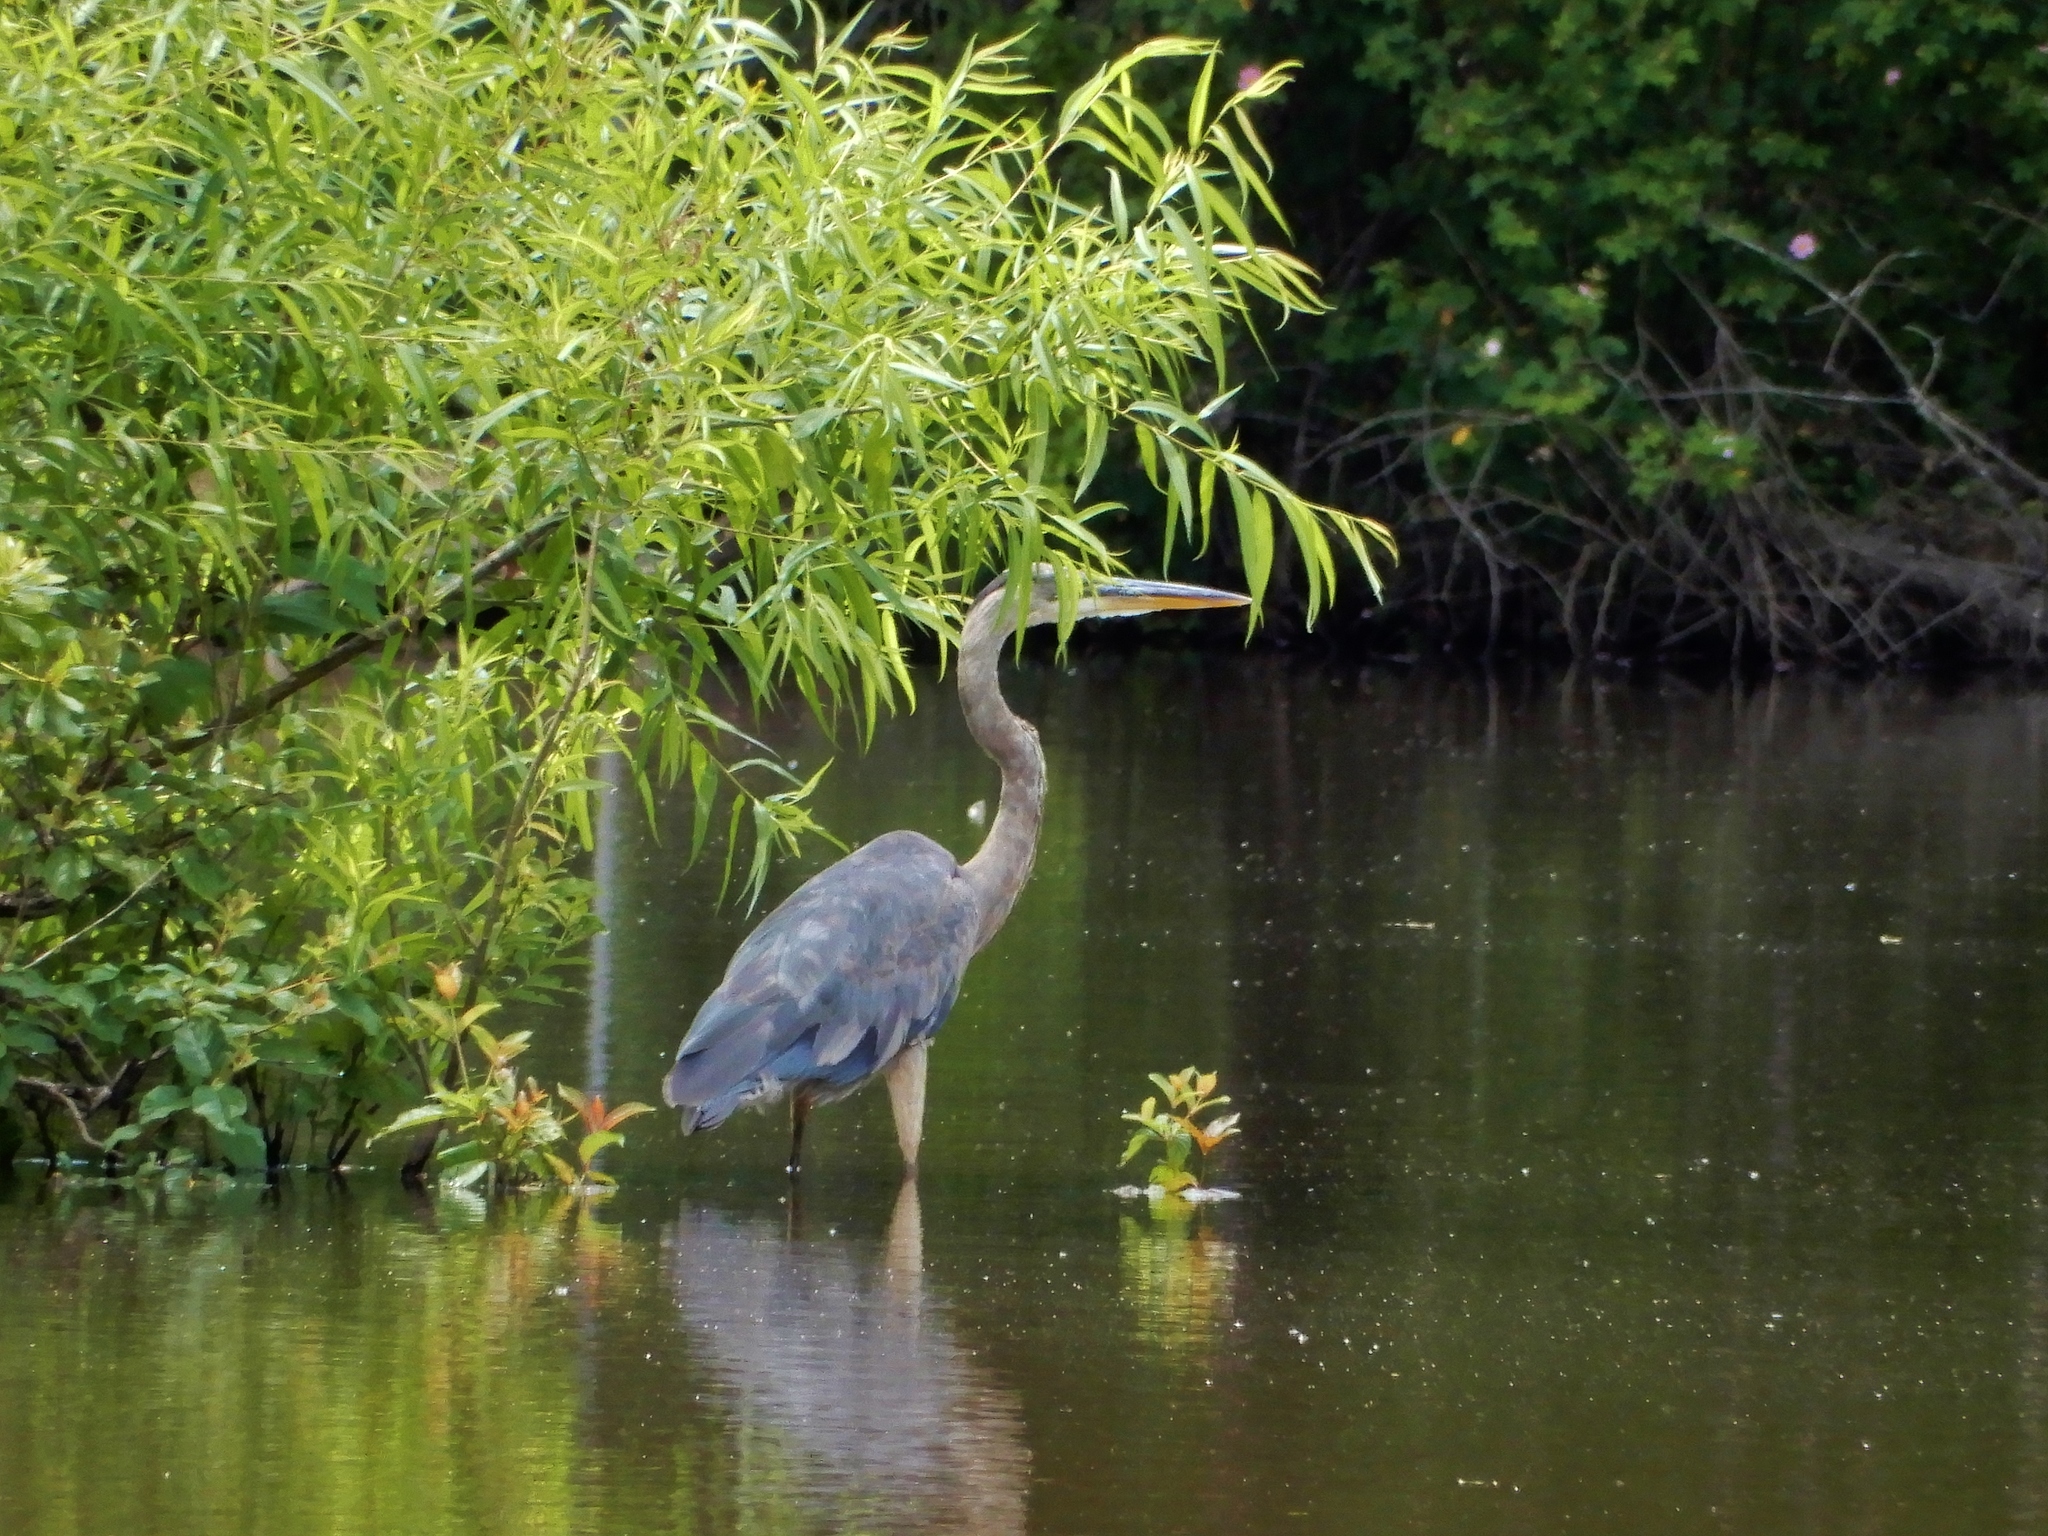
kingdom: Animalia
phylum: Chordata
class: Aves
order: Pelecaniformes
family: Ardeidae
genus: Ardea
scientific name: Ardea herodias
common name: Great blue heron
